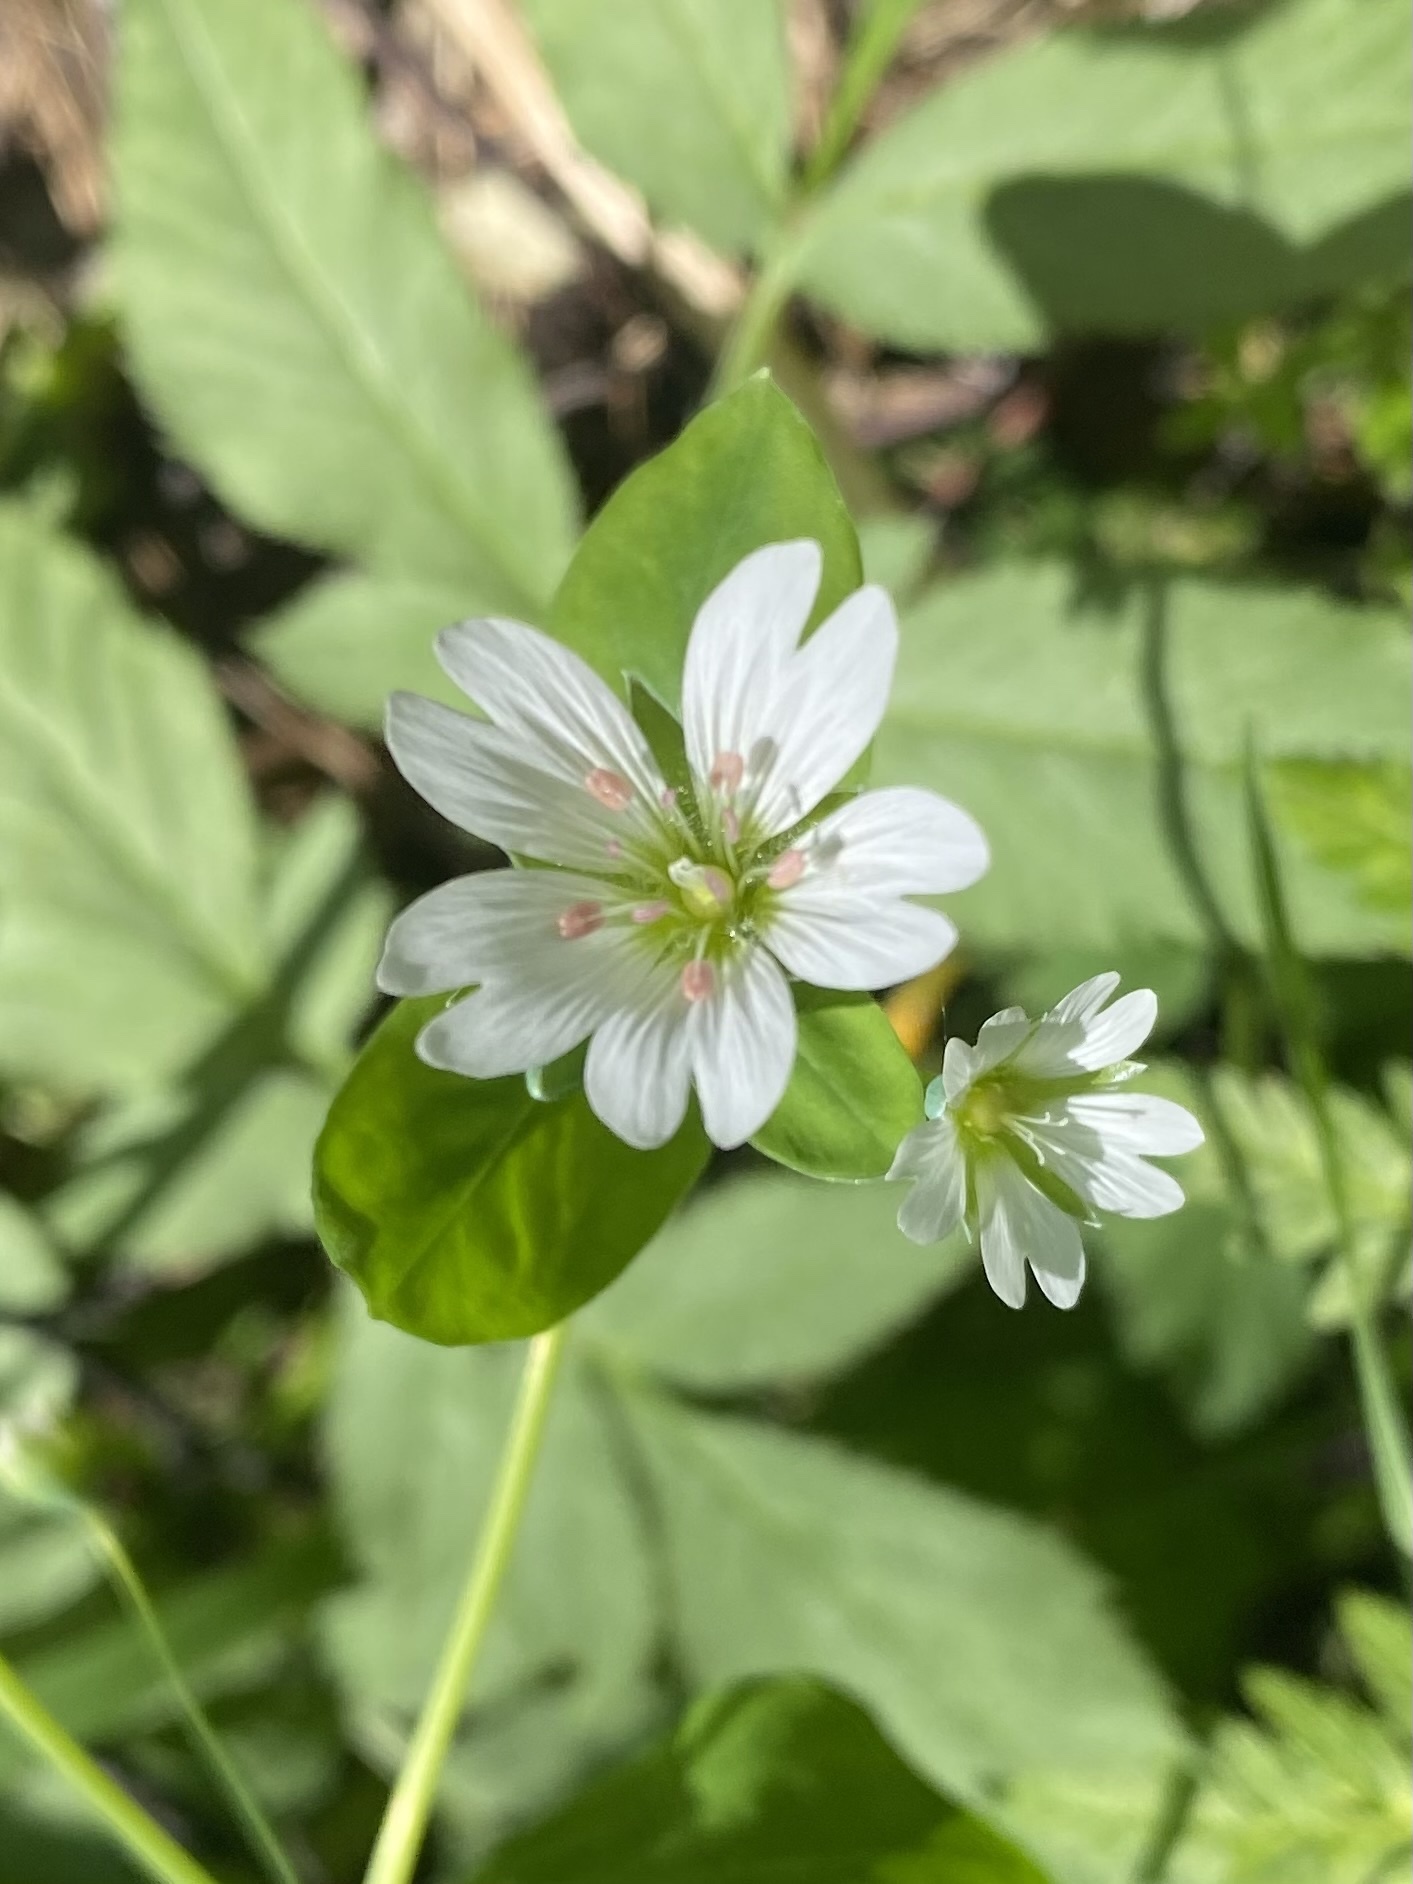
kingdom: Plantae
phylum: Tracheophyta
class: Magnoliopsida
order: Caryophyllales
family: Caryophyllaceae
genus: Cerastium
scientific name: Cerastium davuricum
